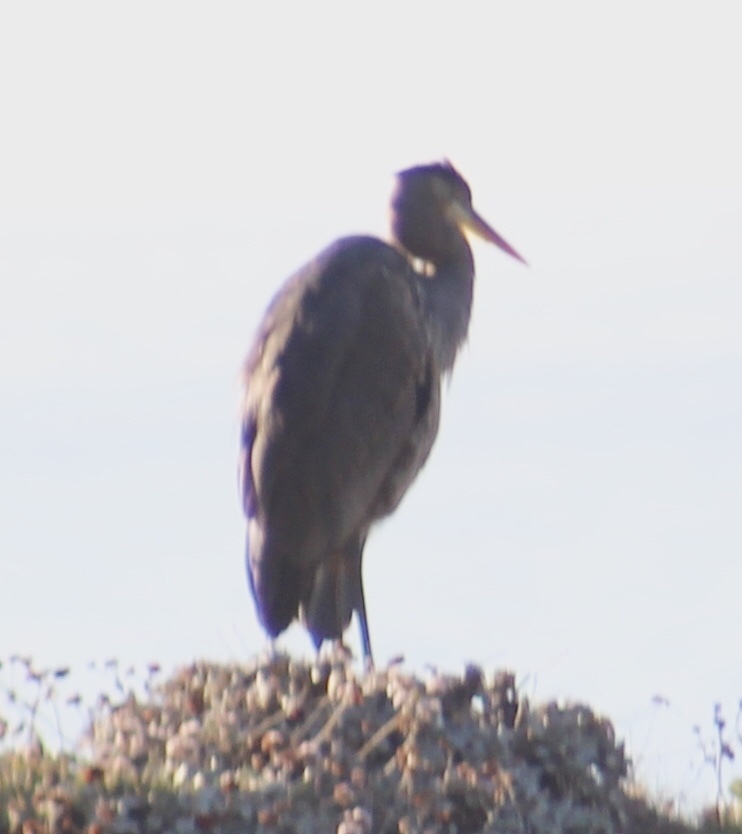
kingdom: Animalia
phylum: Chordata
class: Aves
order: Pelecaniformes
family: Ardeidae
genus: Ardea
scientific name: Ardea herodias
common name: Great blue heron
